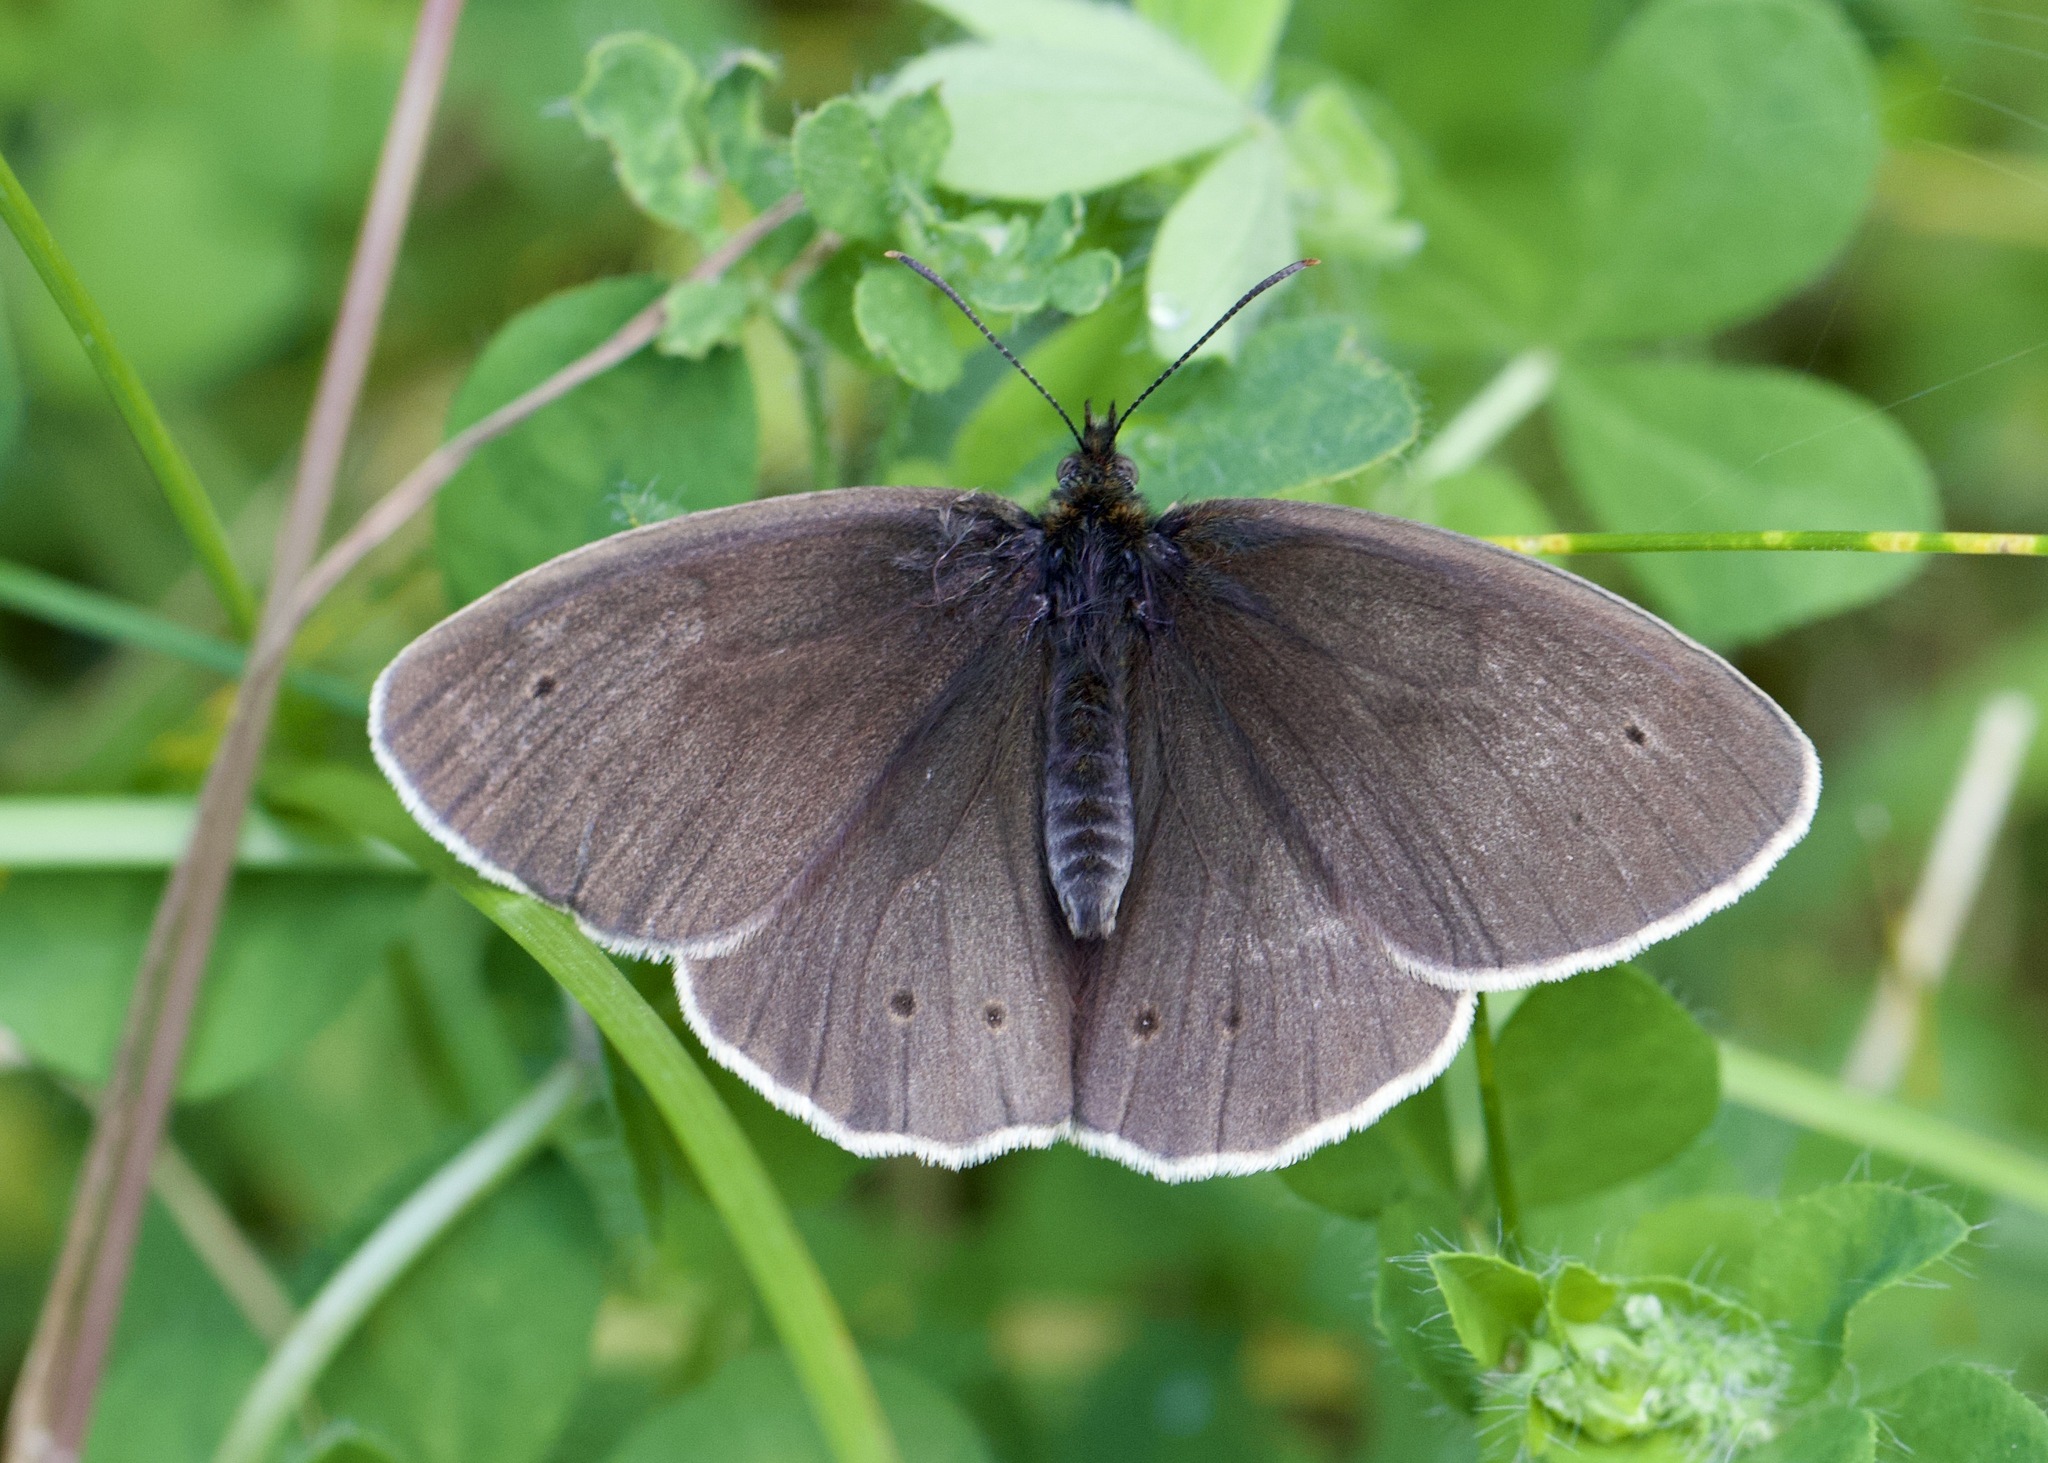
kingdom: Animalia
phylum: Arthropoda
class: Insecta
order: Lepidoptera
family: Nymphalidae
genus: Aphantopus
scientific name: Aphantopus hyperantus
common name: Ringlet
